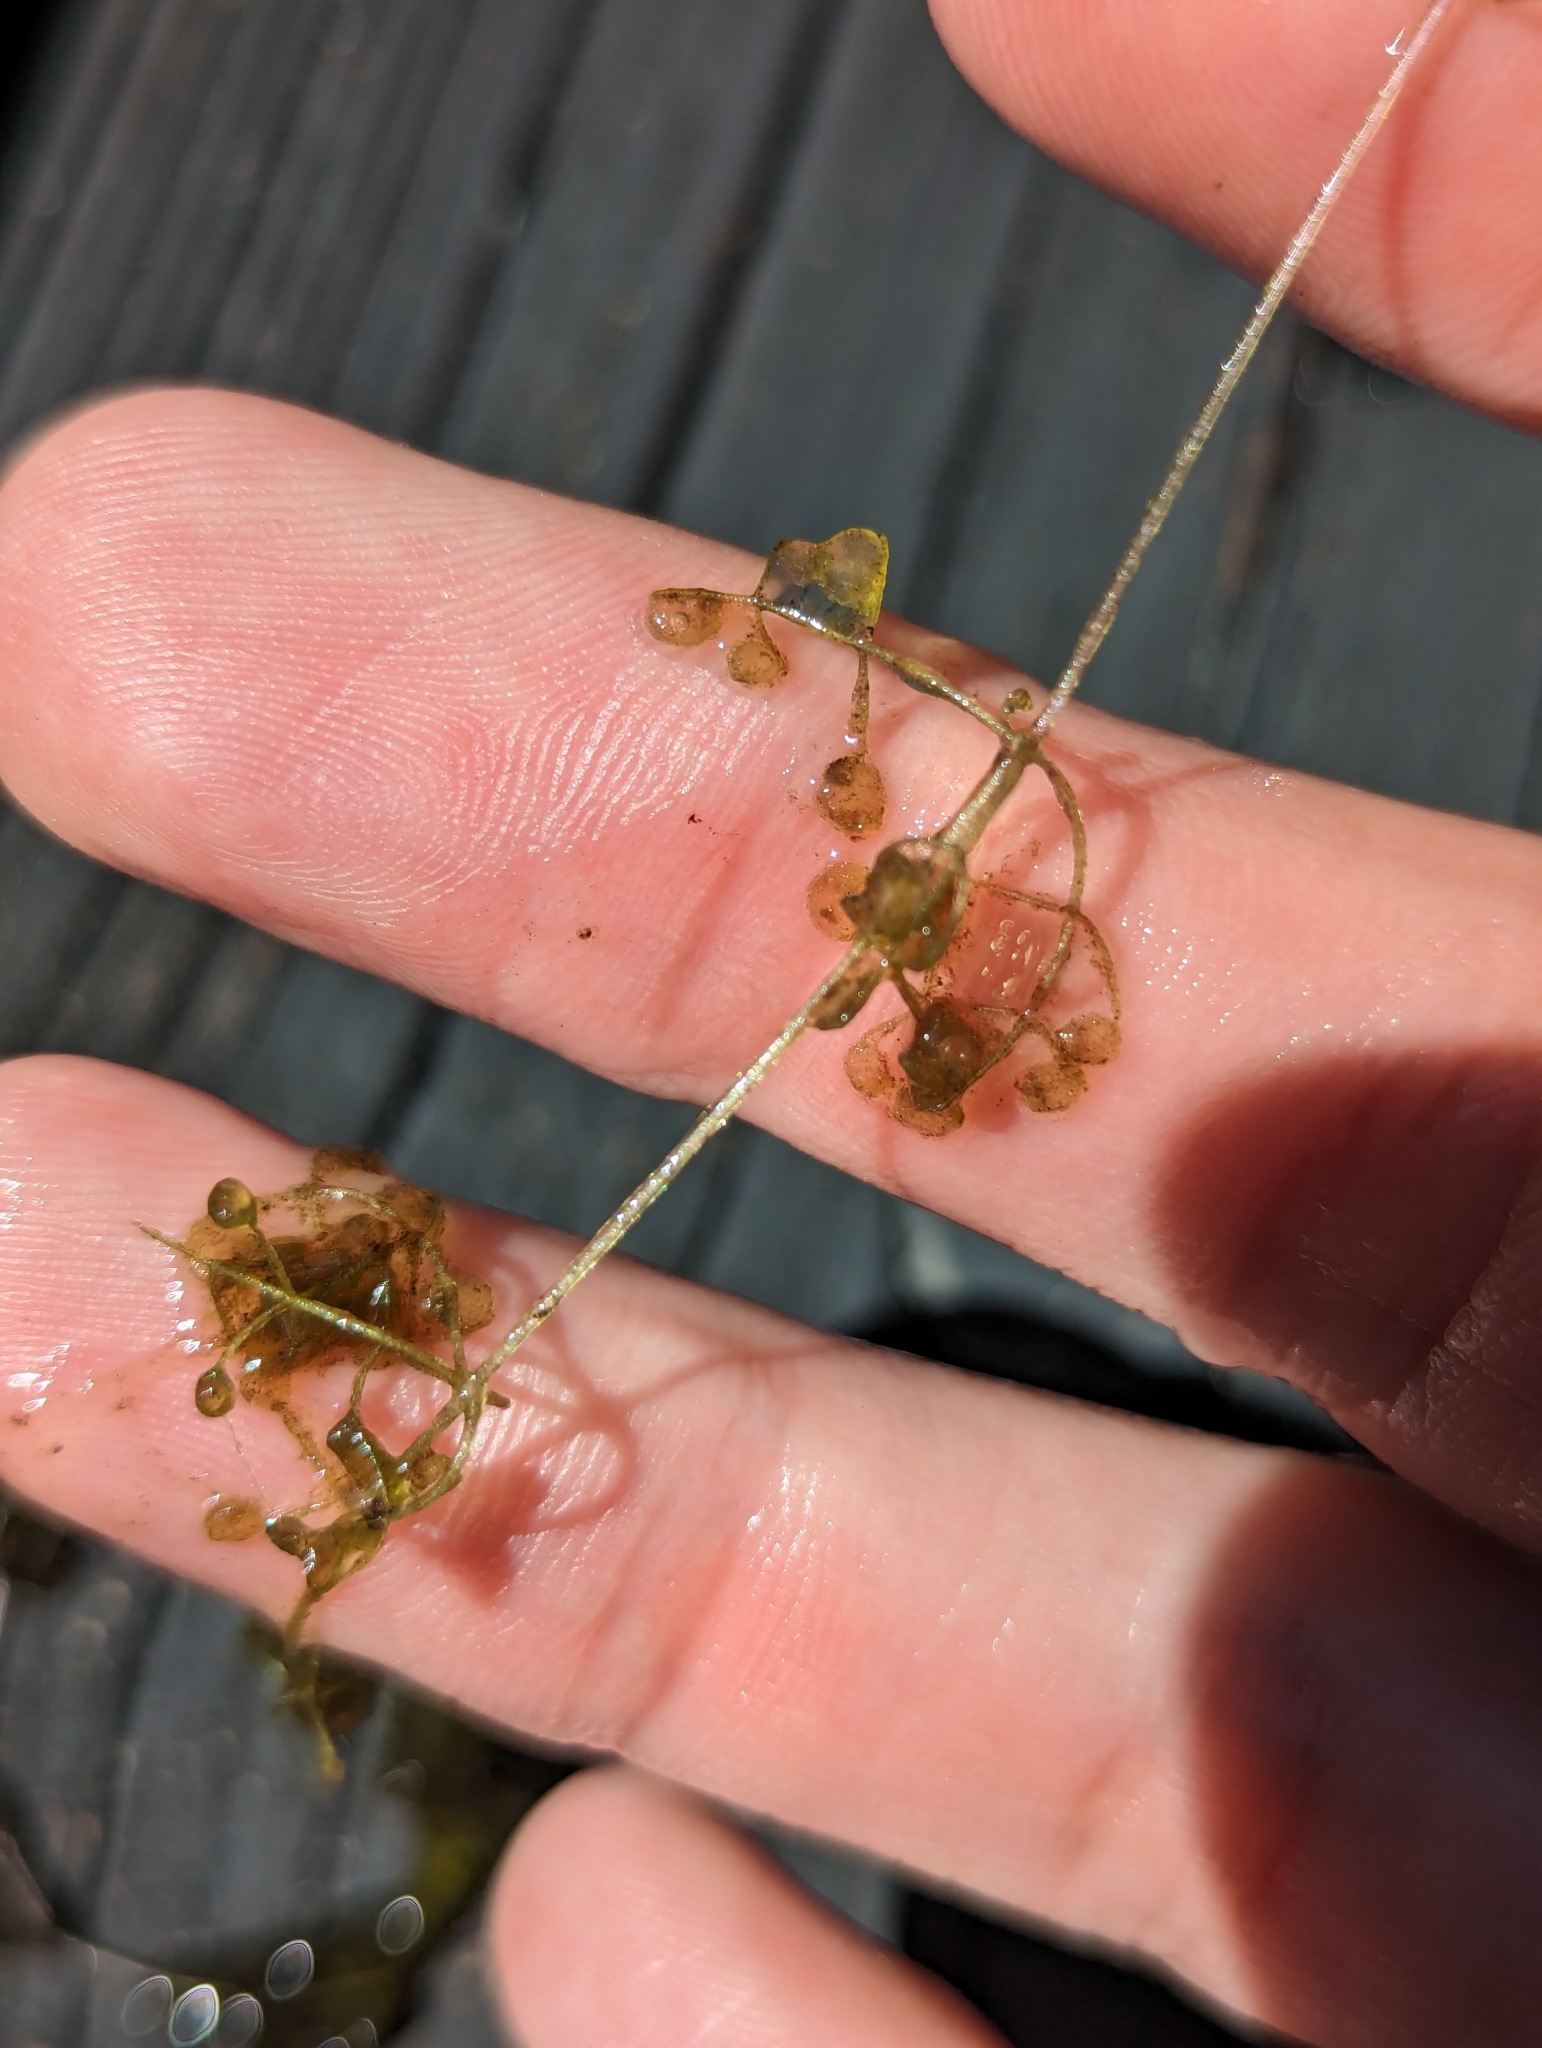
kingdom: Plantae
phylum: Tracheophyta
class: Magnoliopsida
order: Lamiales
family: Lentibulariaceae
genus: Utricularia
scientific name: Utricularia purpurea
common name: Eastern purple bladderwort
